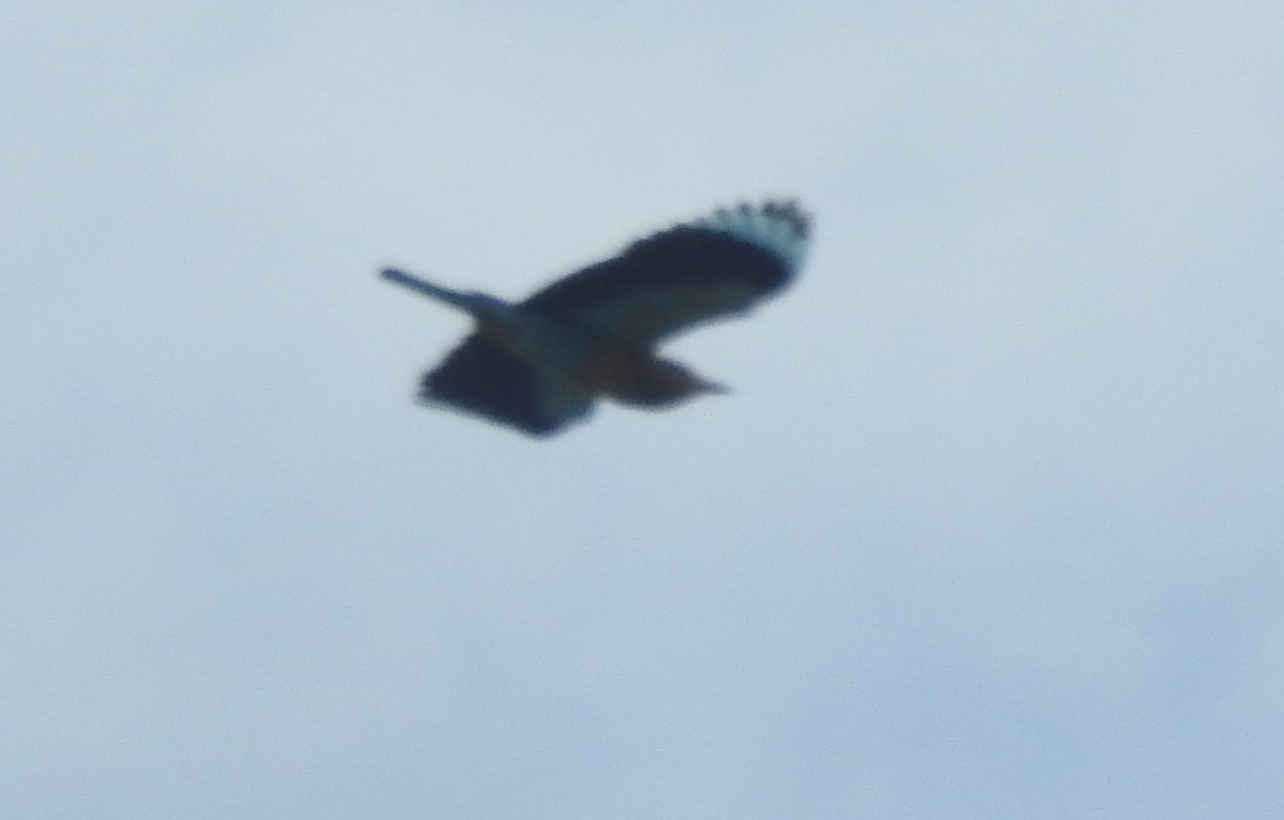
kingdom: Animalia
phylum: Chordata
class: Aves
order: Coraciiformes
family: Coraciidae
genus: Coracias
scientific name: Coracias benghalensis
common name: Indian roller
